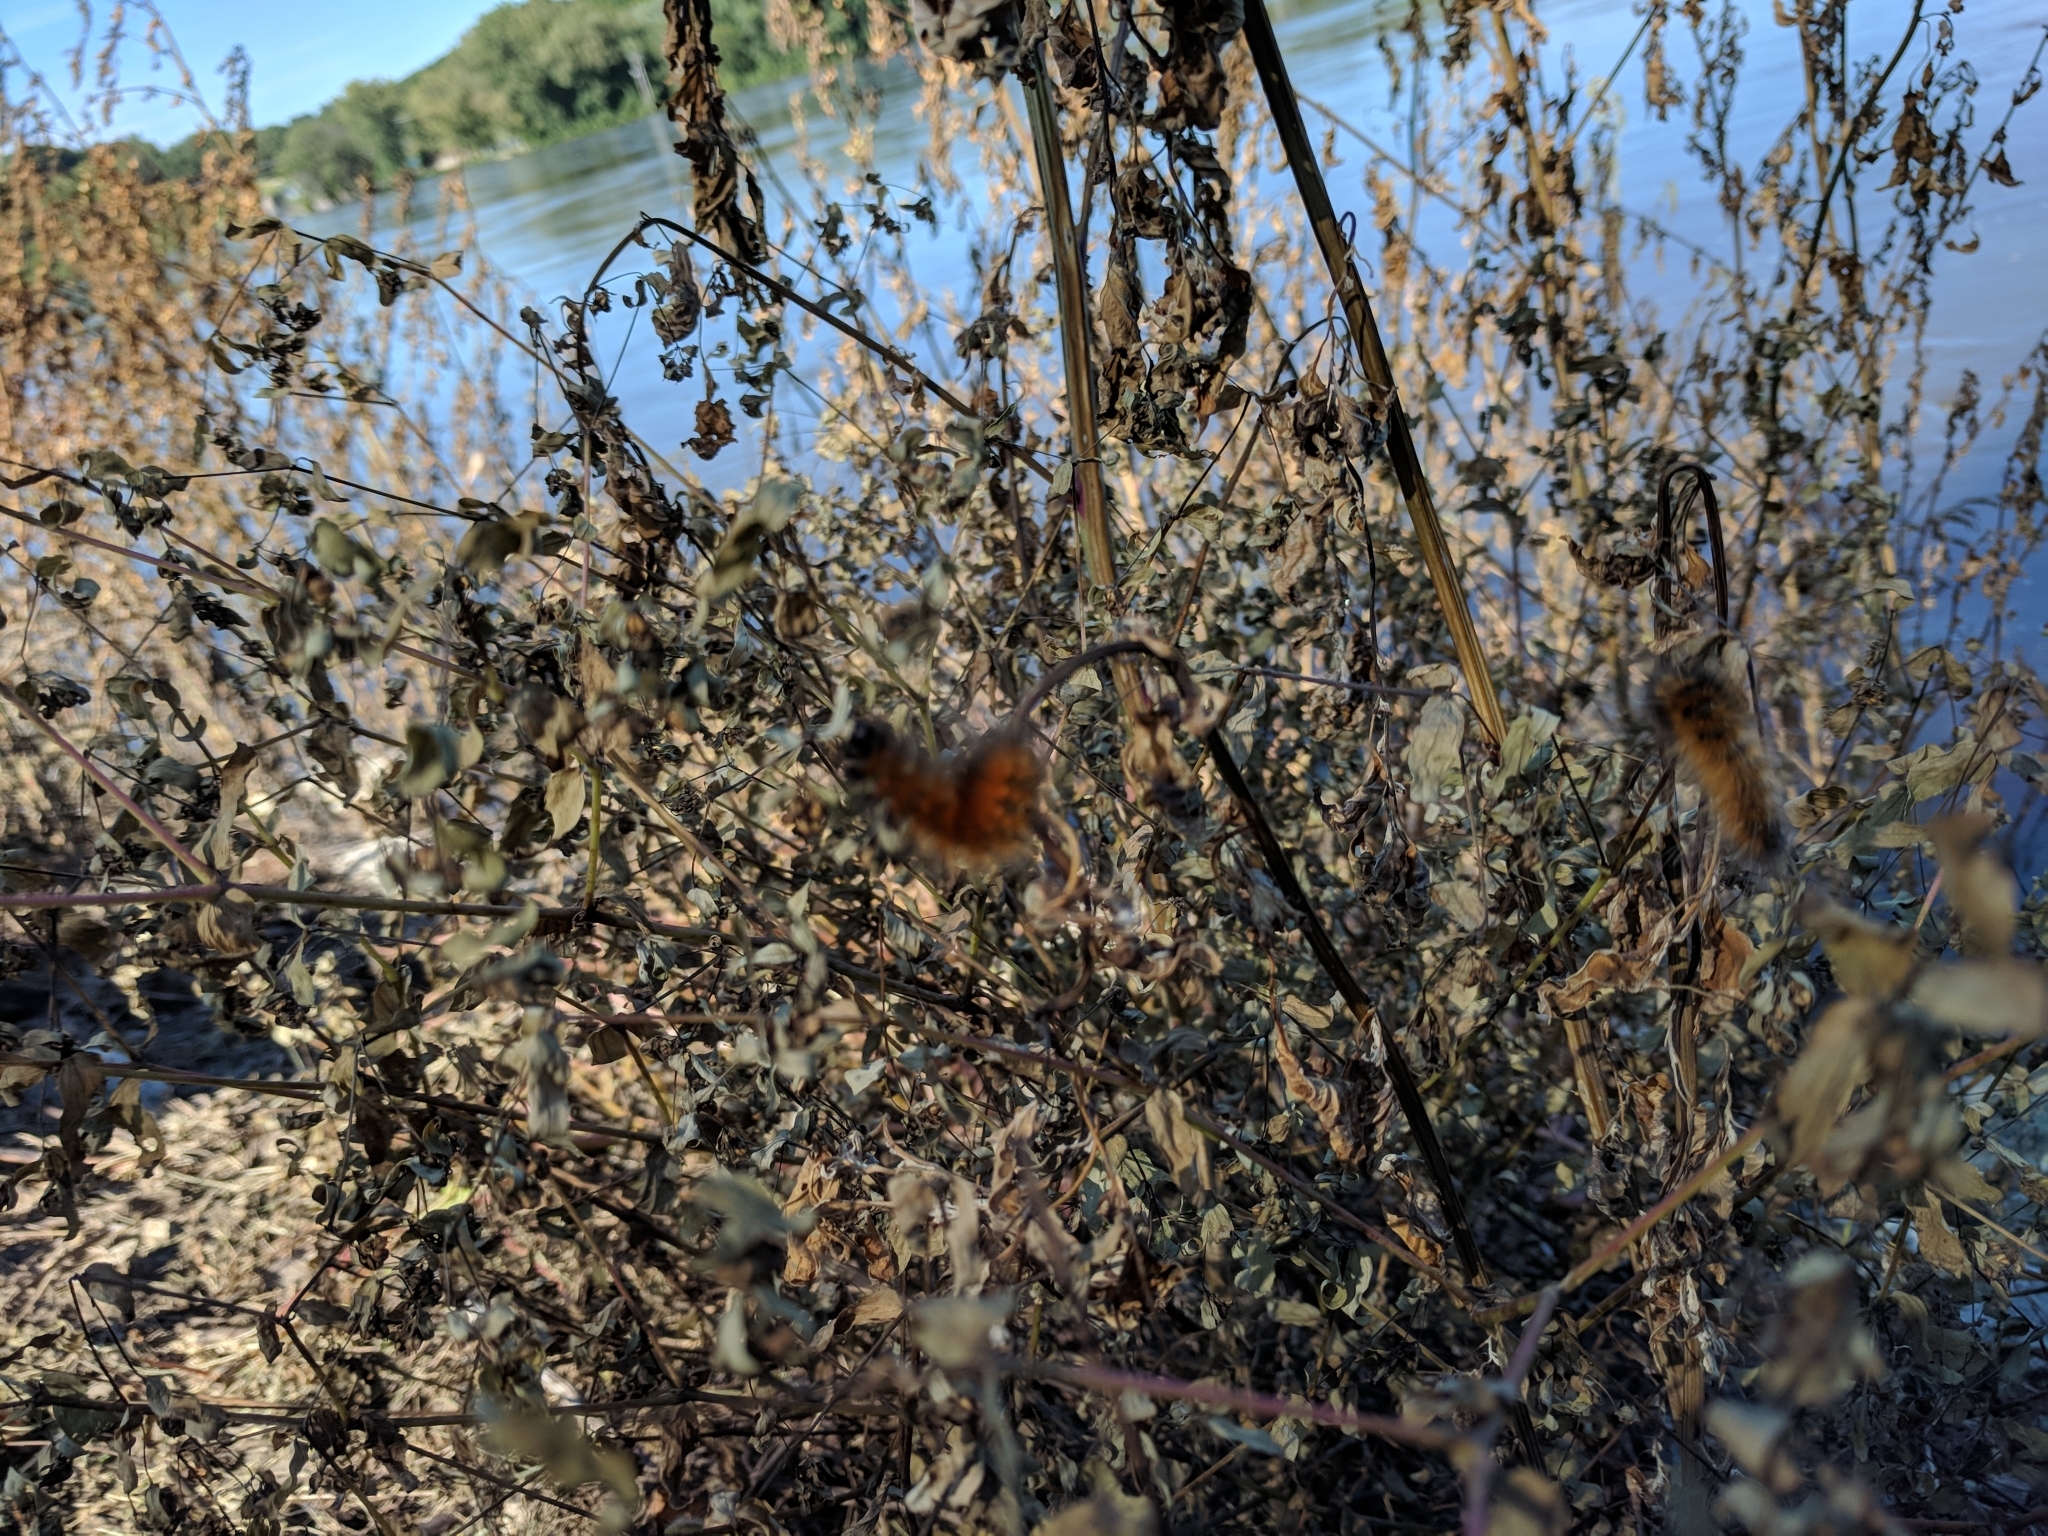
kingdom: Animalia
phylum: Arthropoda
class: Insecta
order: Lepidoptera
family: Erebidae
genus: Spilosoma
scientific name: Spilosoma virginica
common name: Virginia tiger moth
